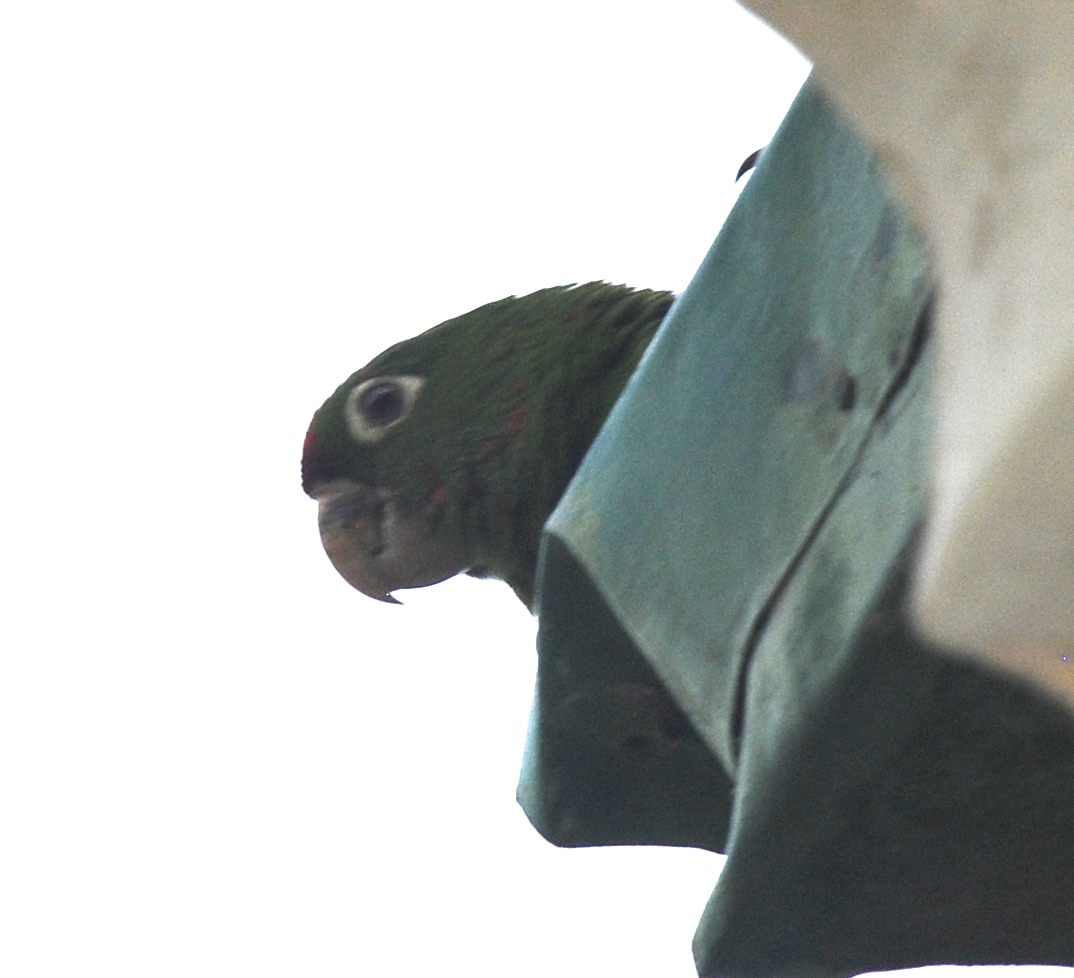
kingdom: Animalia
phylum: Chordata
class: Aves
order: Psittaciformes
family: Psittacidae
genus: Aratinga
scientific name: Aratinga finschi
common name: Crimson-fronted parakeet
